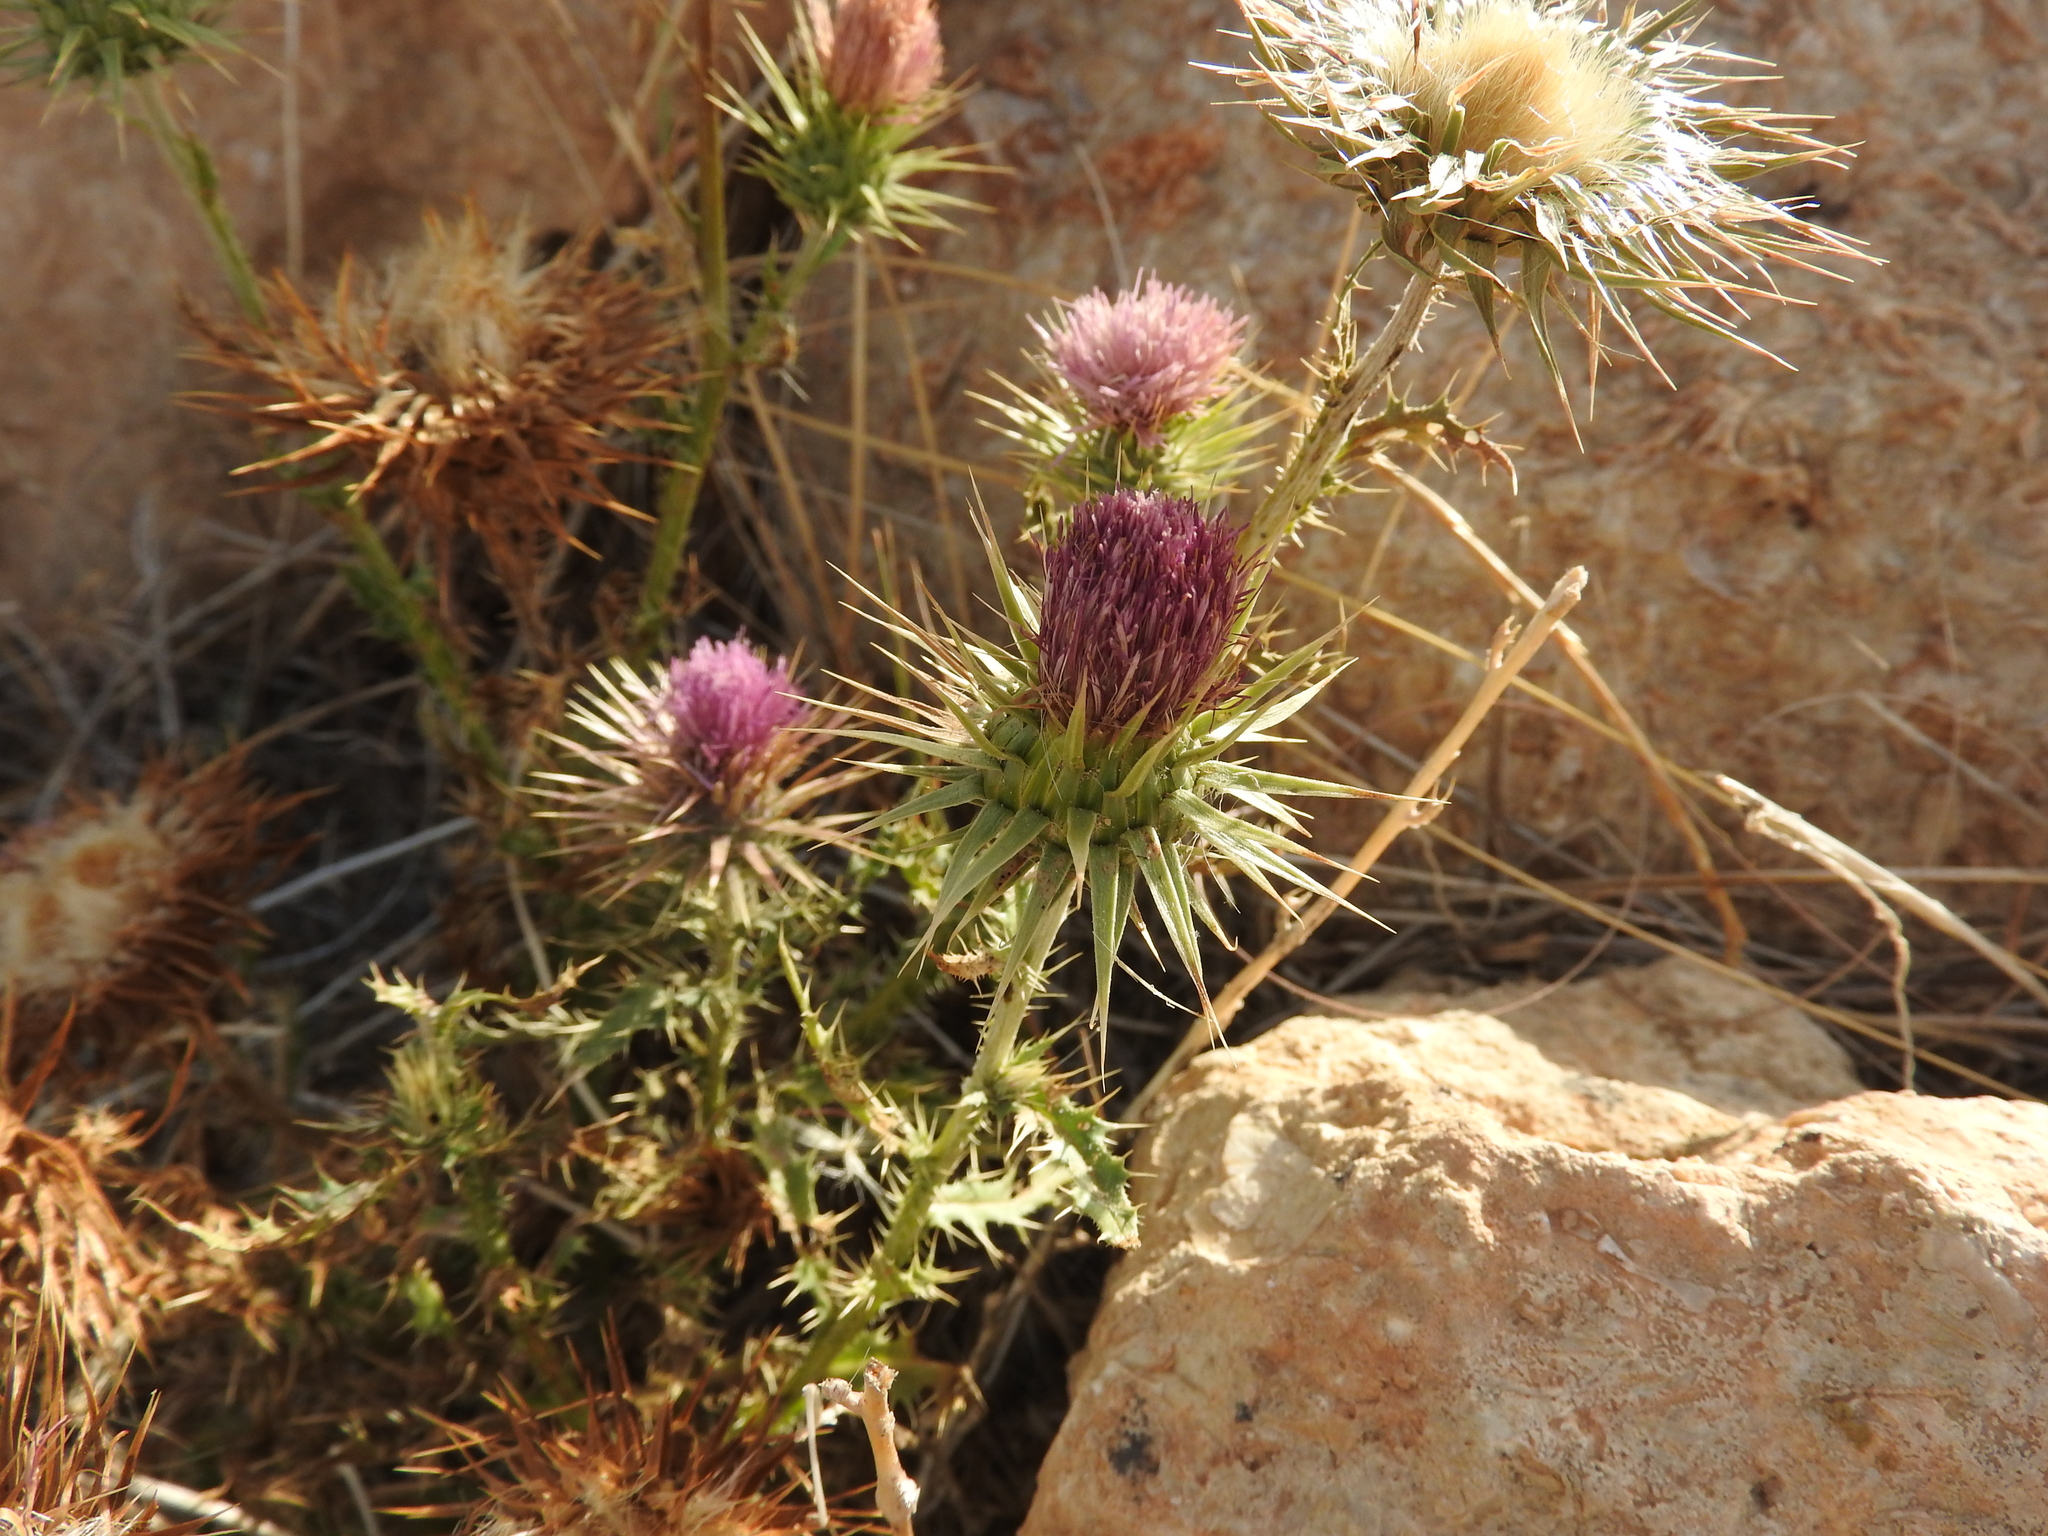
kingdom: Plantae
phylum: Tracheophyta
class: Magnoliopsida
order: Asterales
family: Asteraceae
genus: Carduus
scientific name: Carduus macrocephalus
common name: Giant thistle
